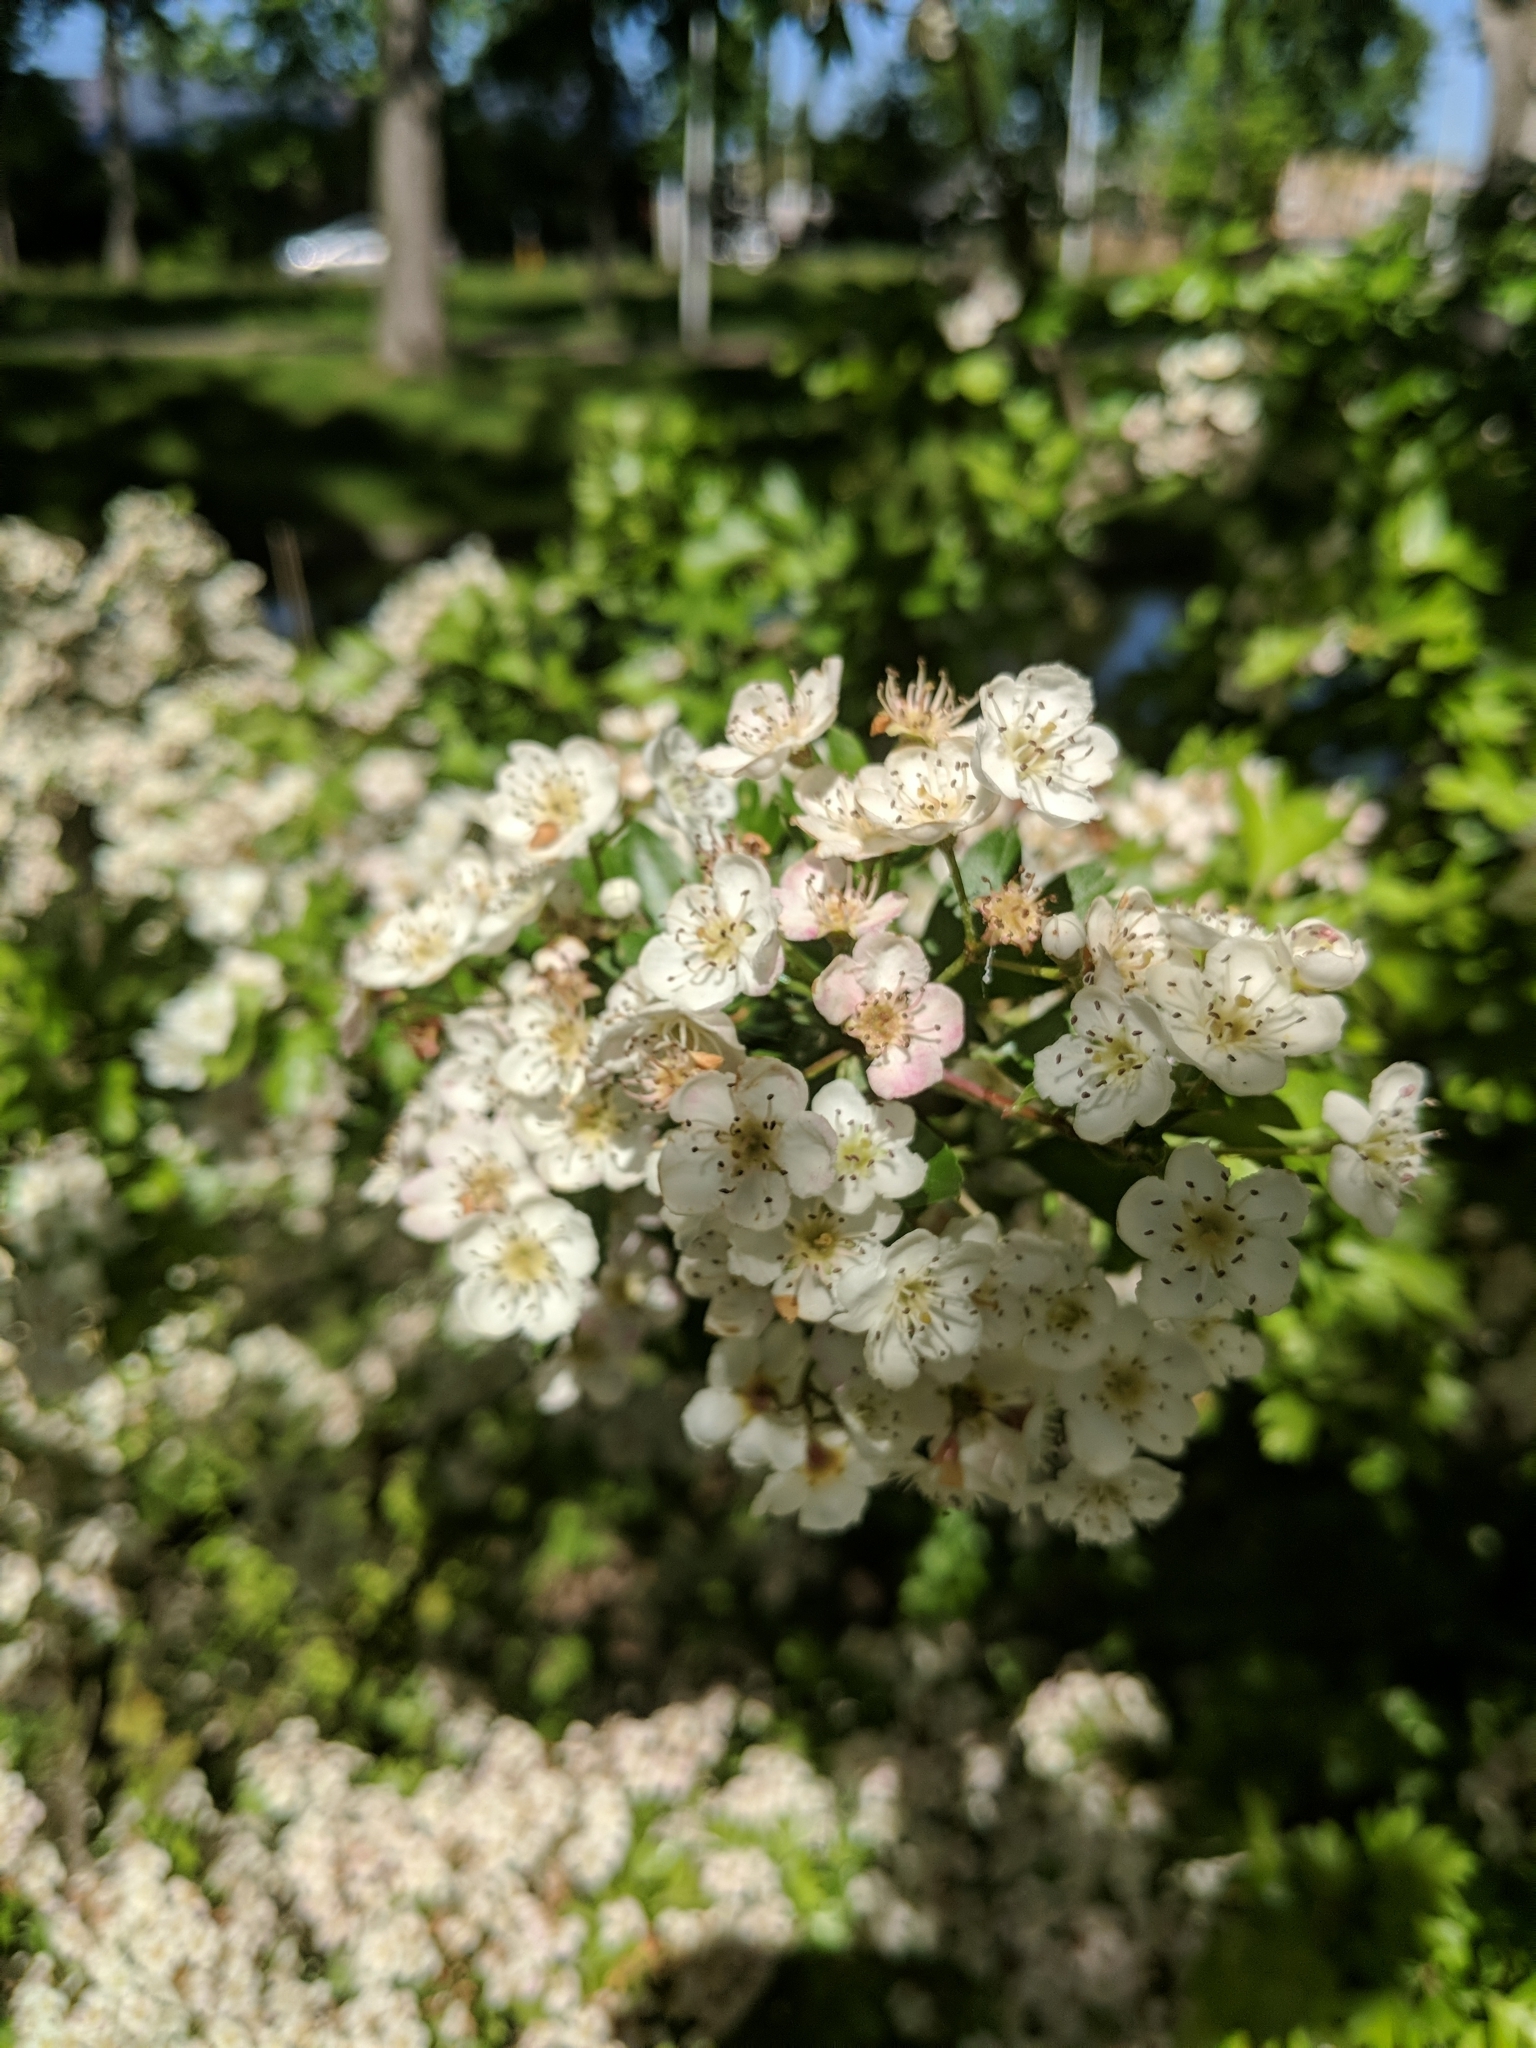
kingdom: Plantae
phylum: Tracheophyta
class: Magnoliopsida
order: Rosales
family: Rosaceae
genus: Crataegus
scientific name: Crataegus monogyna
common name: Hawthorn
